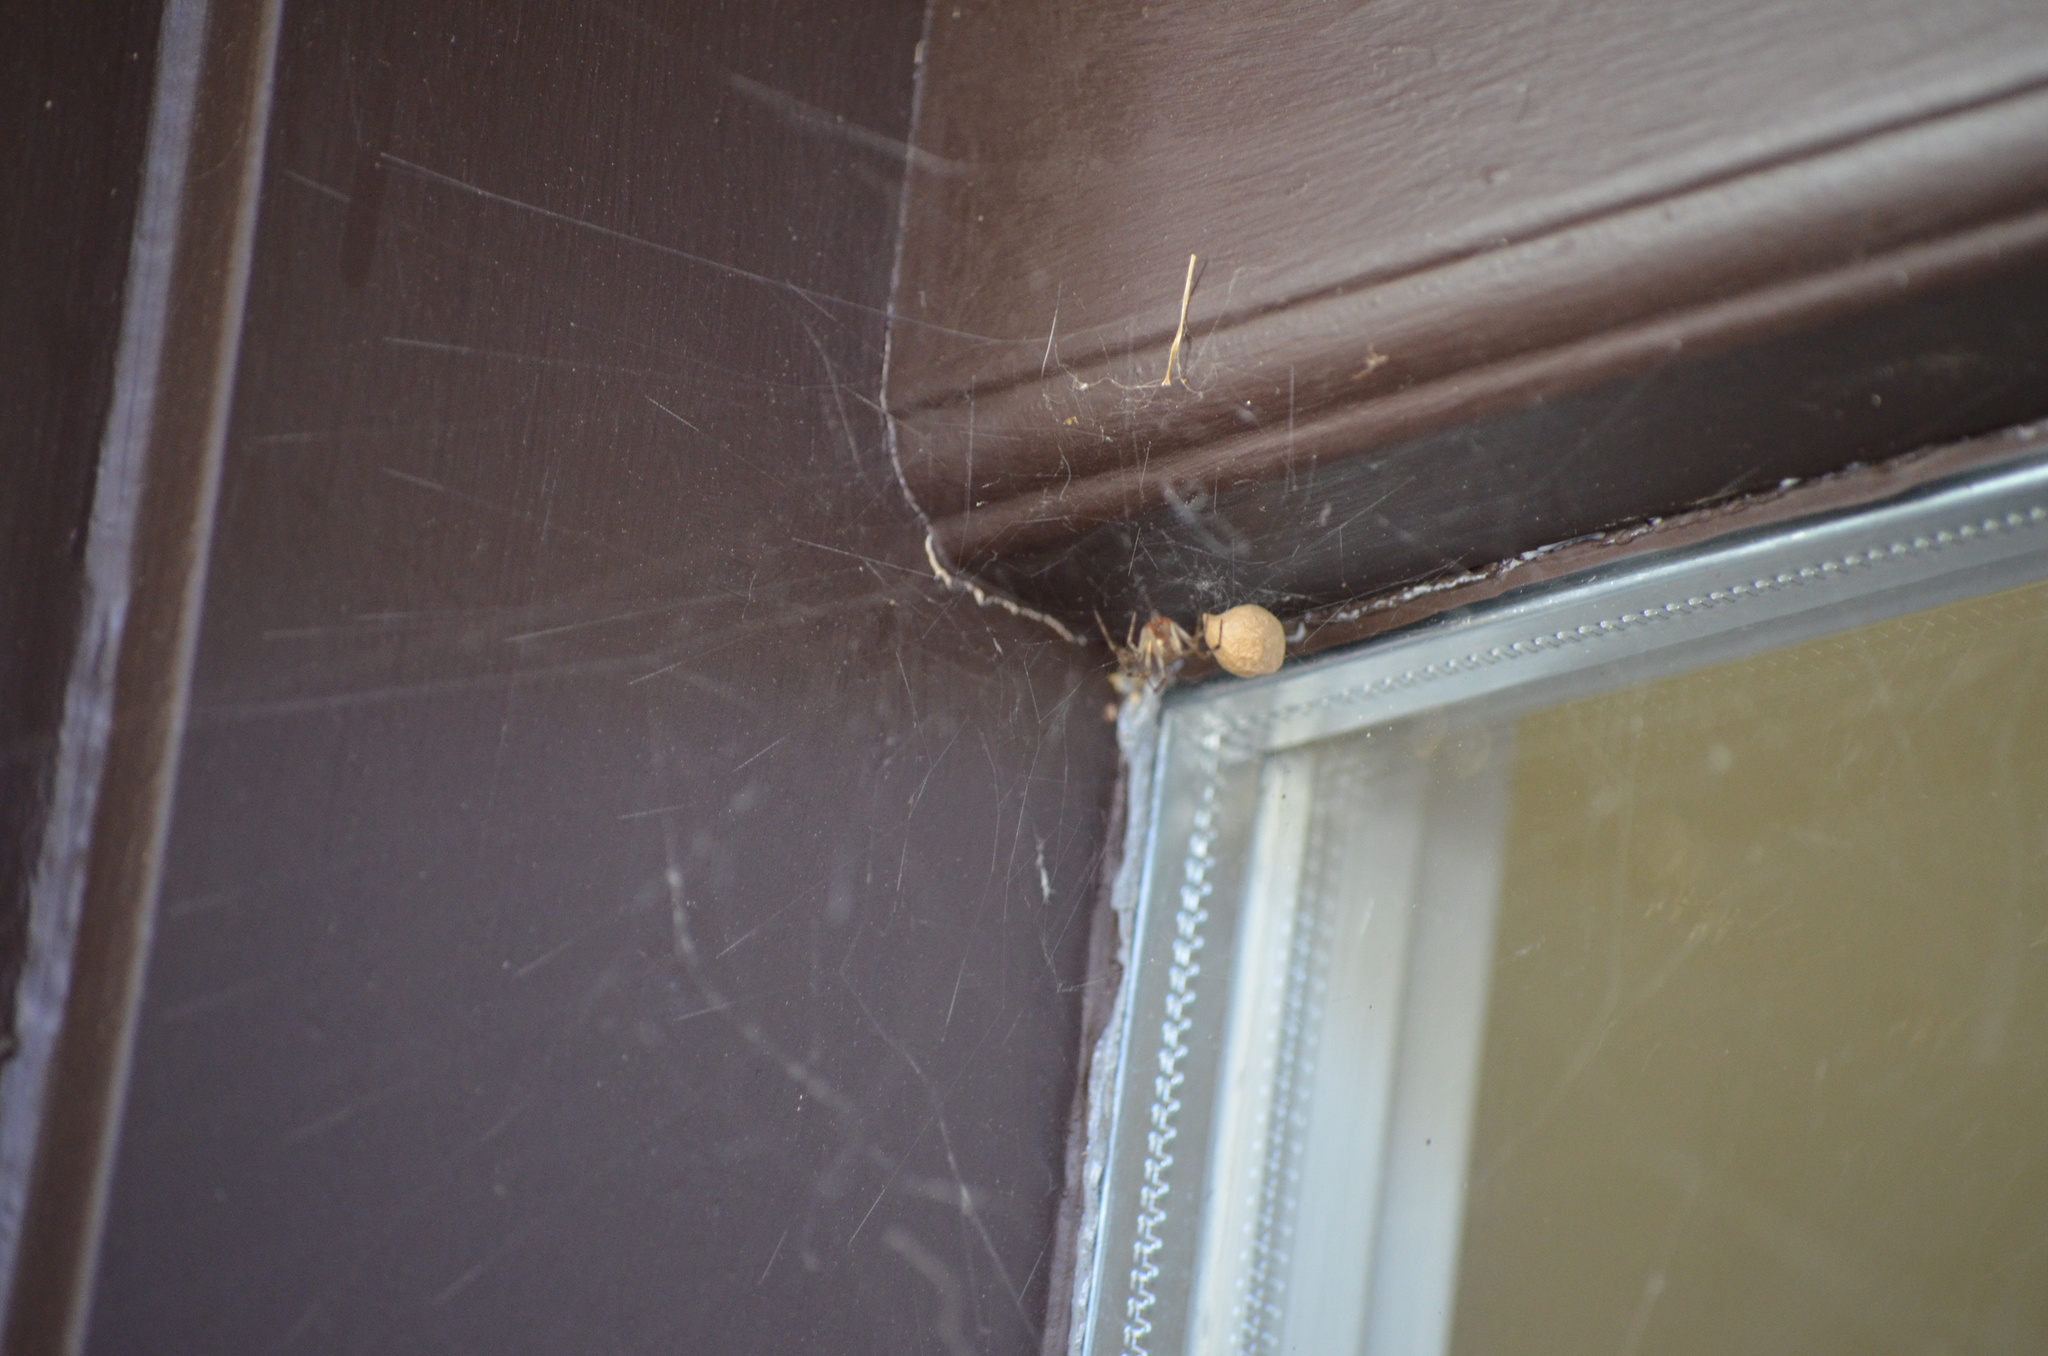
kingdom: Animalia
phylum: Arthropoda
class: Arachnida
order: Araneae
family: Theridiidae
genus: Parasteatoda
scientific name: Parasteatoda tepidariorum
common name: Common house spider
